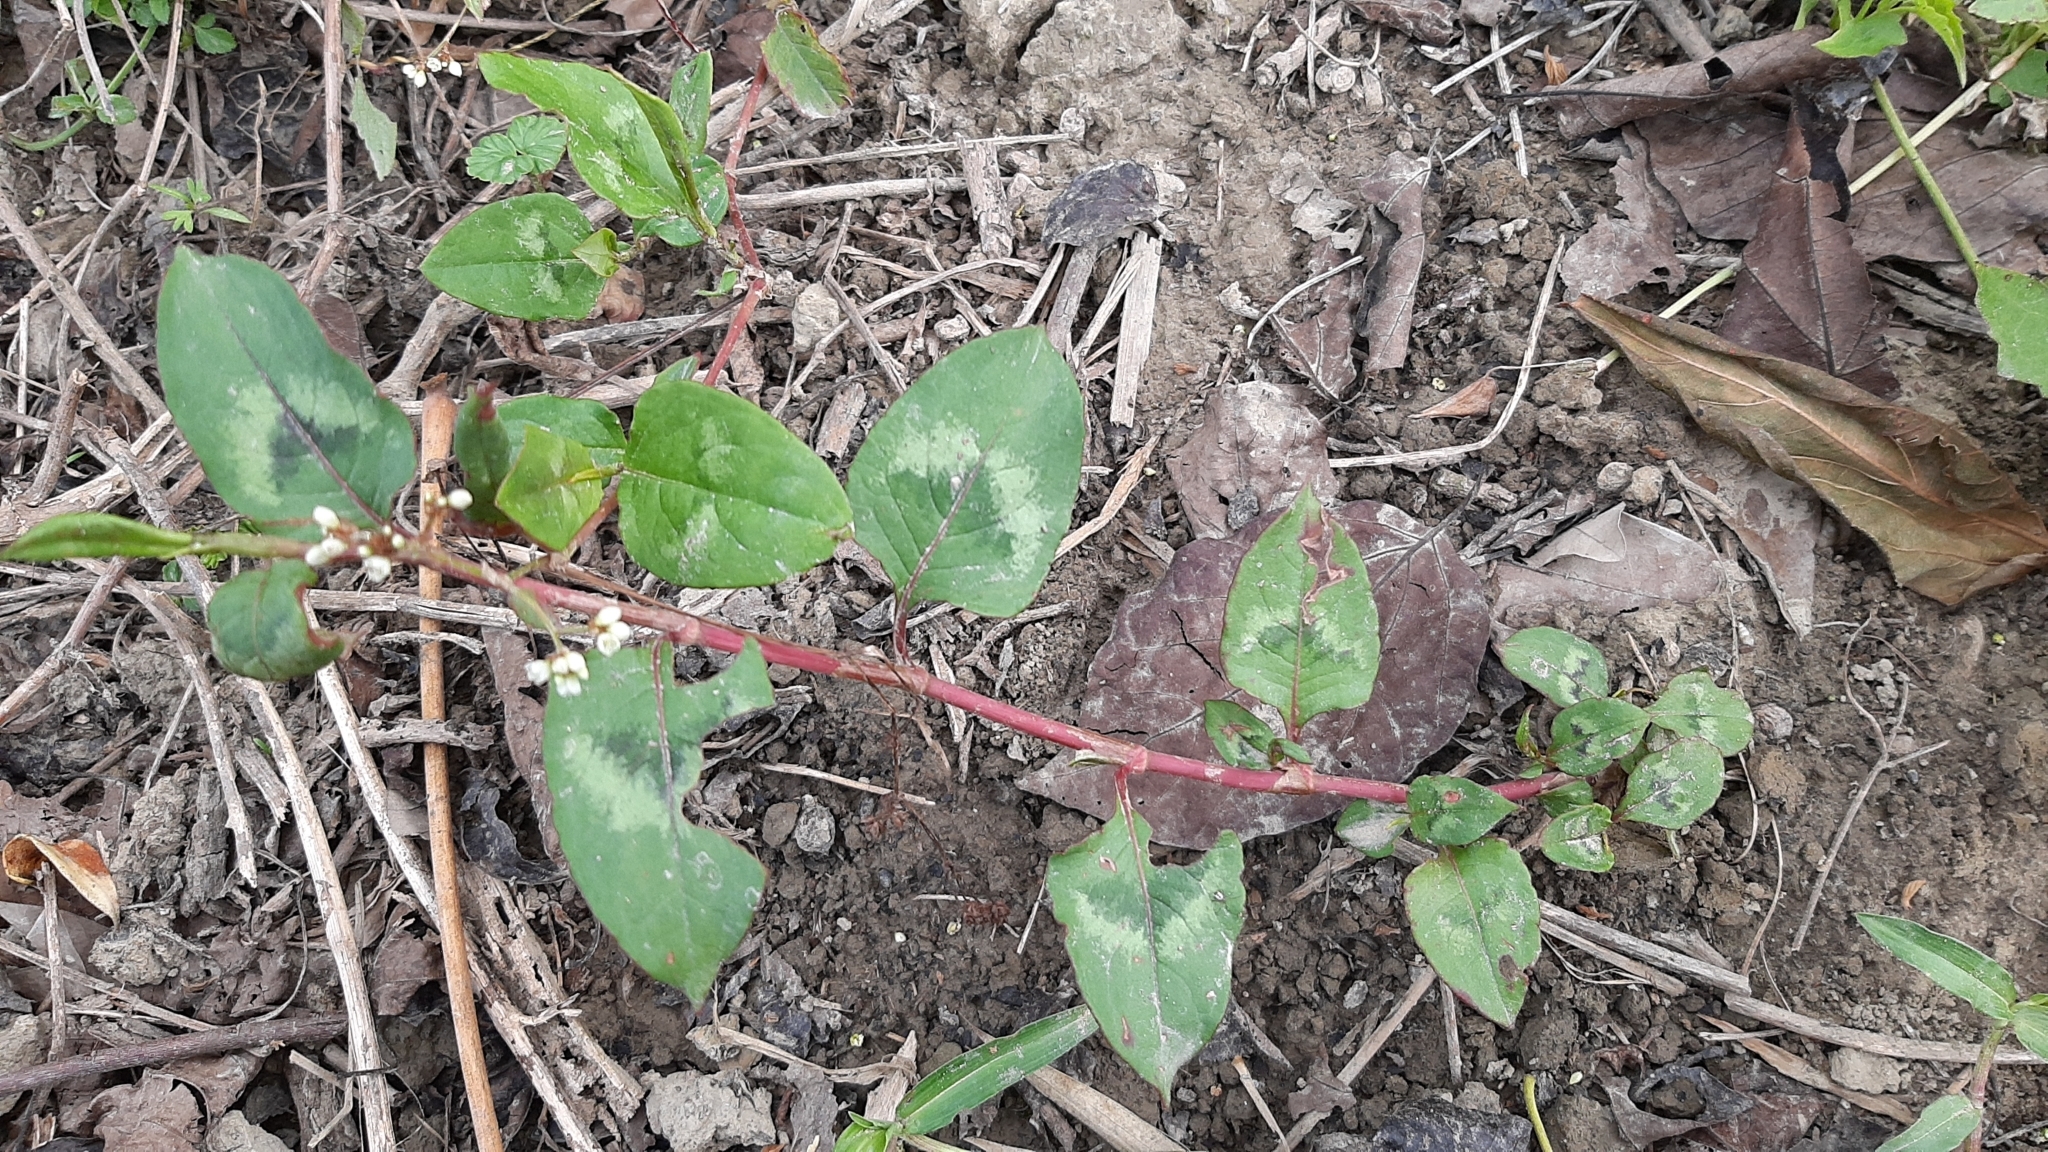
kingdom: Plantae
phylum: Tracheophyta
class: Magnoliopsida
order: Caryophyllales
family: Polygonaceae
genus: Persicaria
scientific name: Persicaria chinensis
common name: Chinese knotweed
